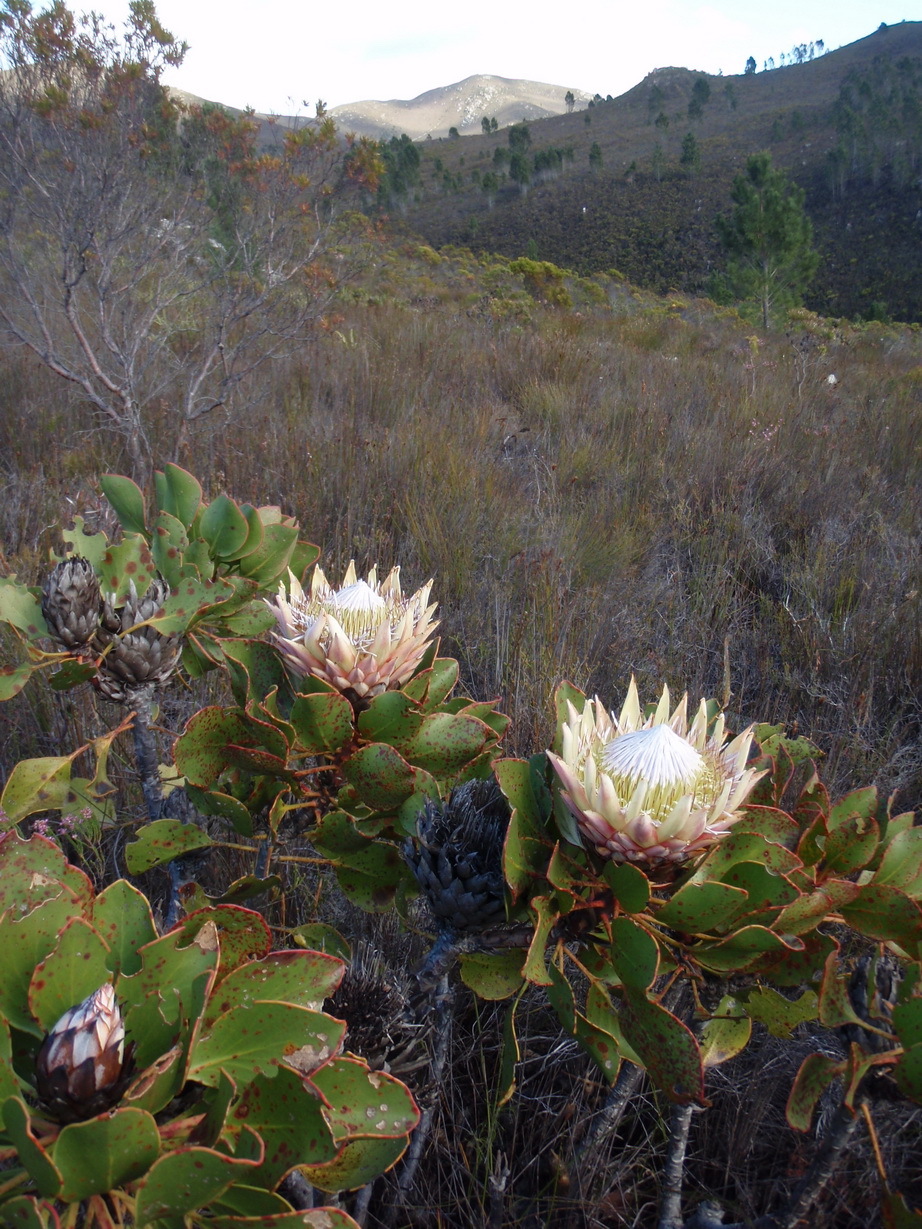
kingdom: Plantae
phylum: Tracheophyta
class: Magnoliopsida
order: Proteales
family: Proteaceae
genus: Protea
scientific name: Protea cynaroides
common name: King protea
